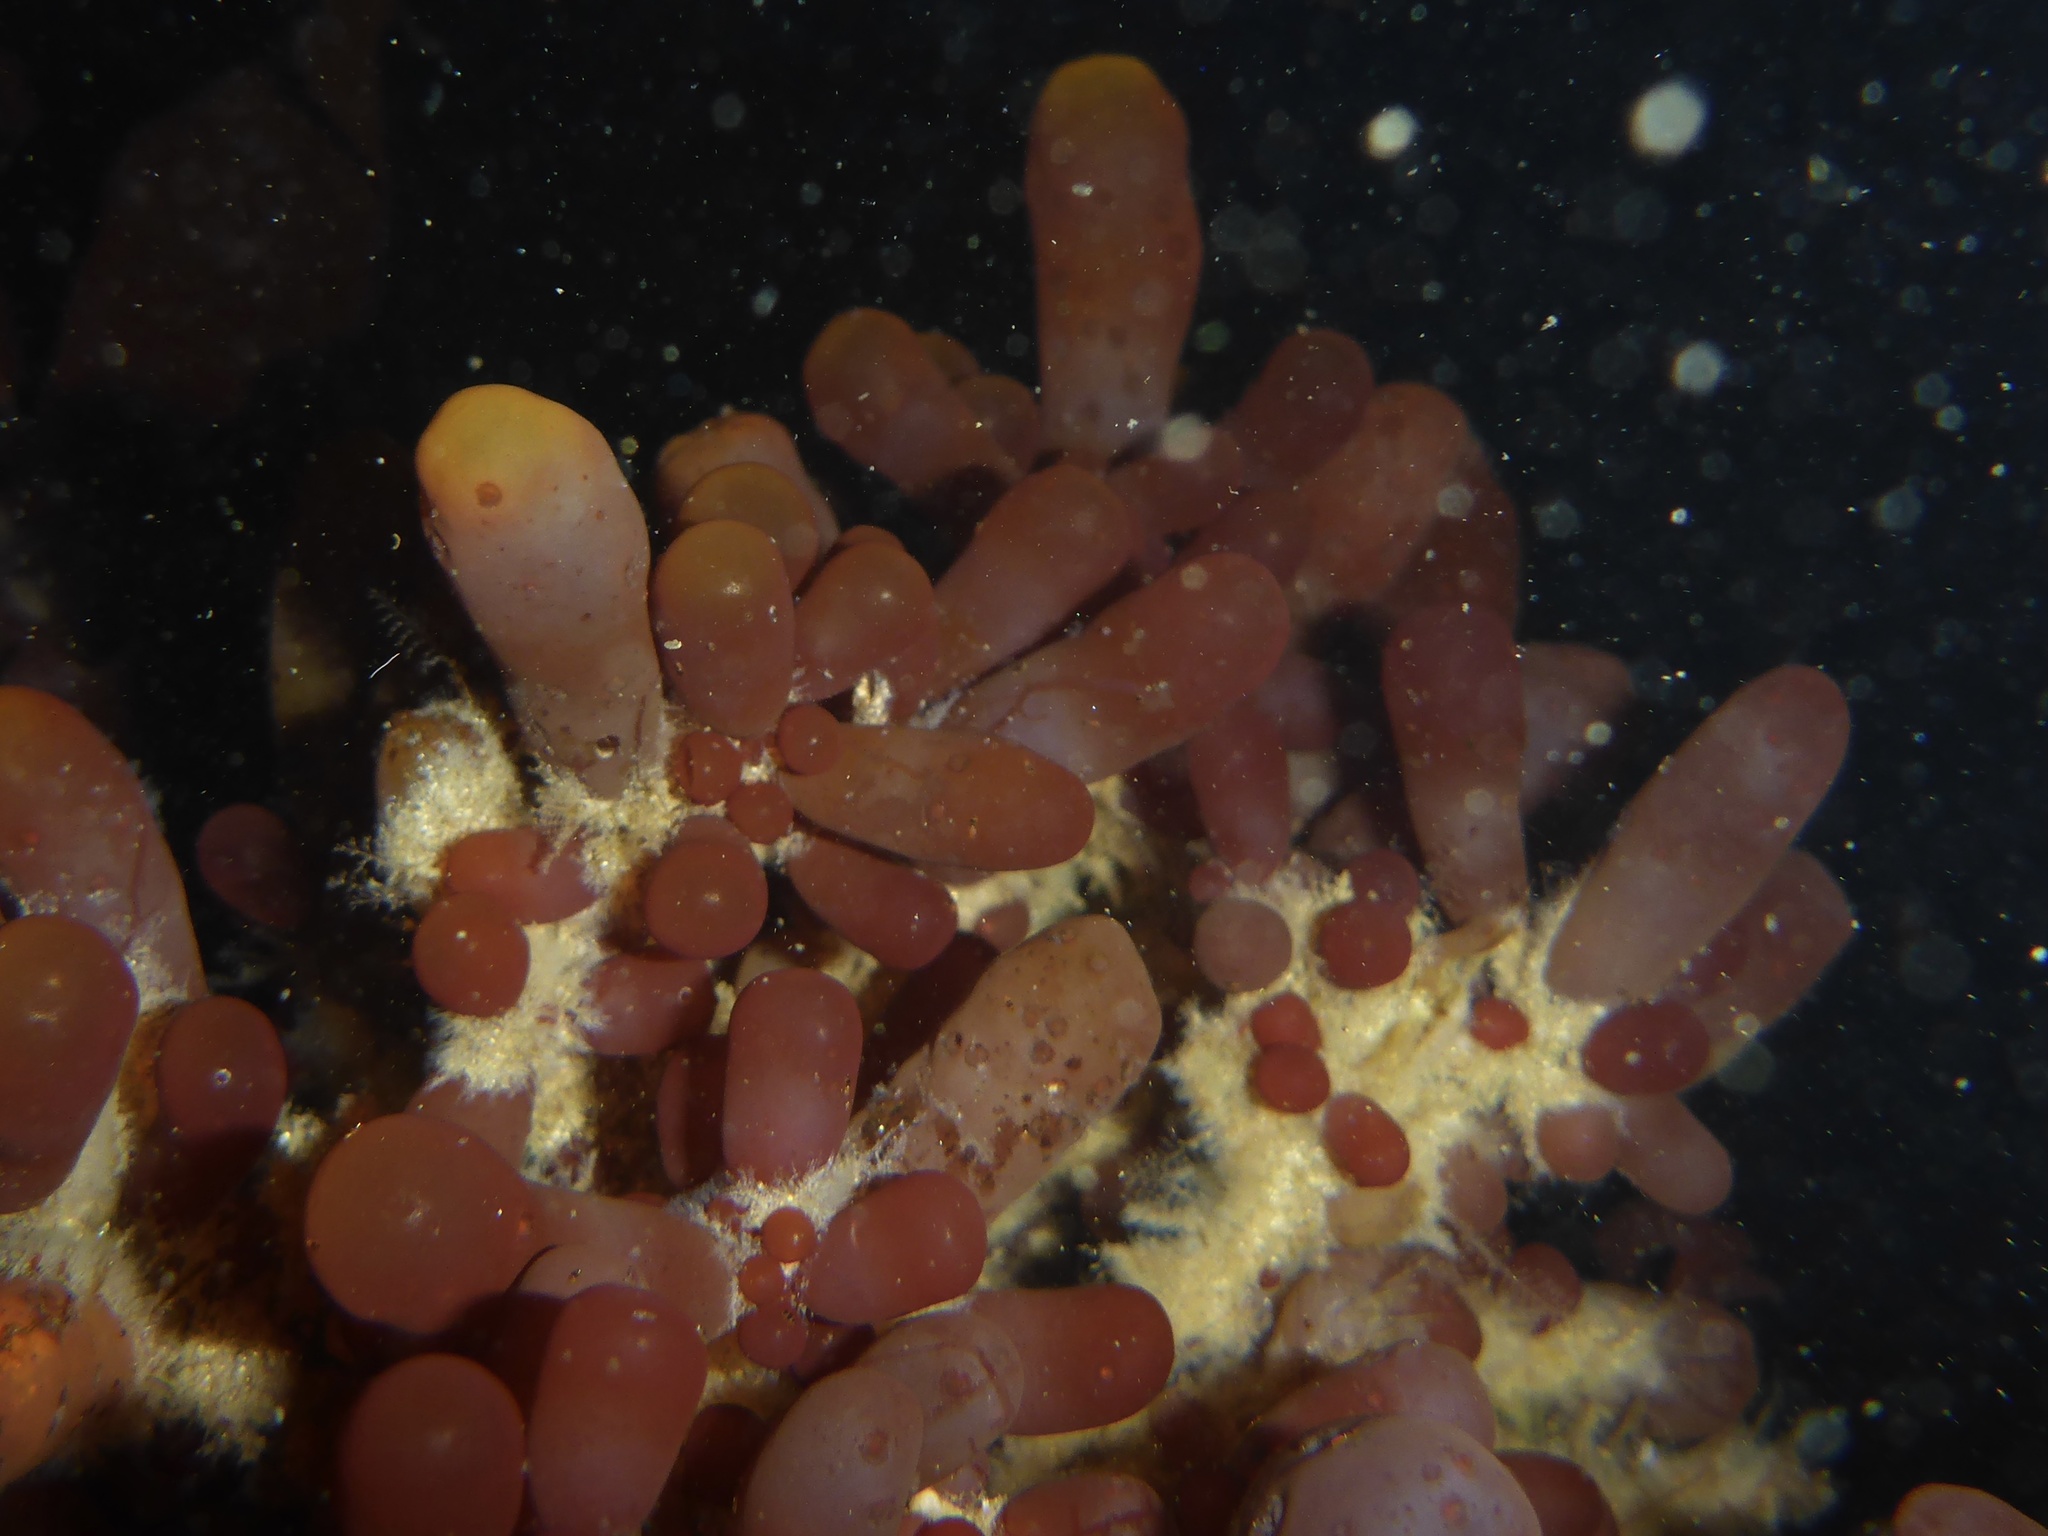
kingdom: Plantae
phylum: Rhodophyta
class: Florideophyceae
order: Rhodymeniales
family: Rhodymeniaceae
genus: Botryocladia
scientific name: Botryocladia pseudodichotoma
